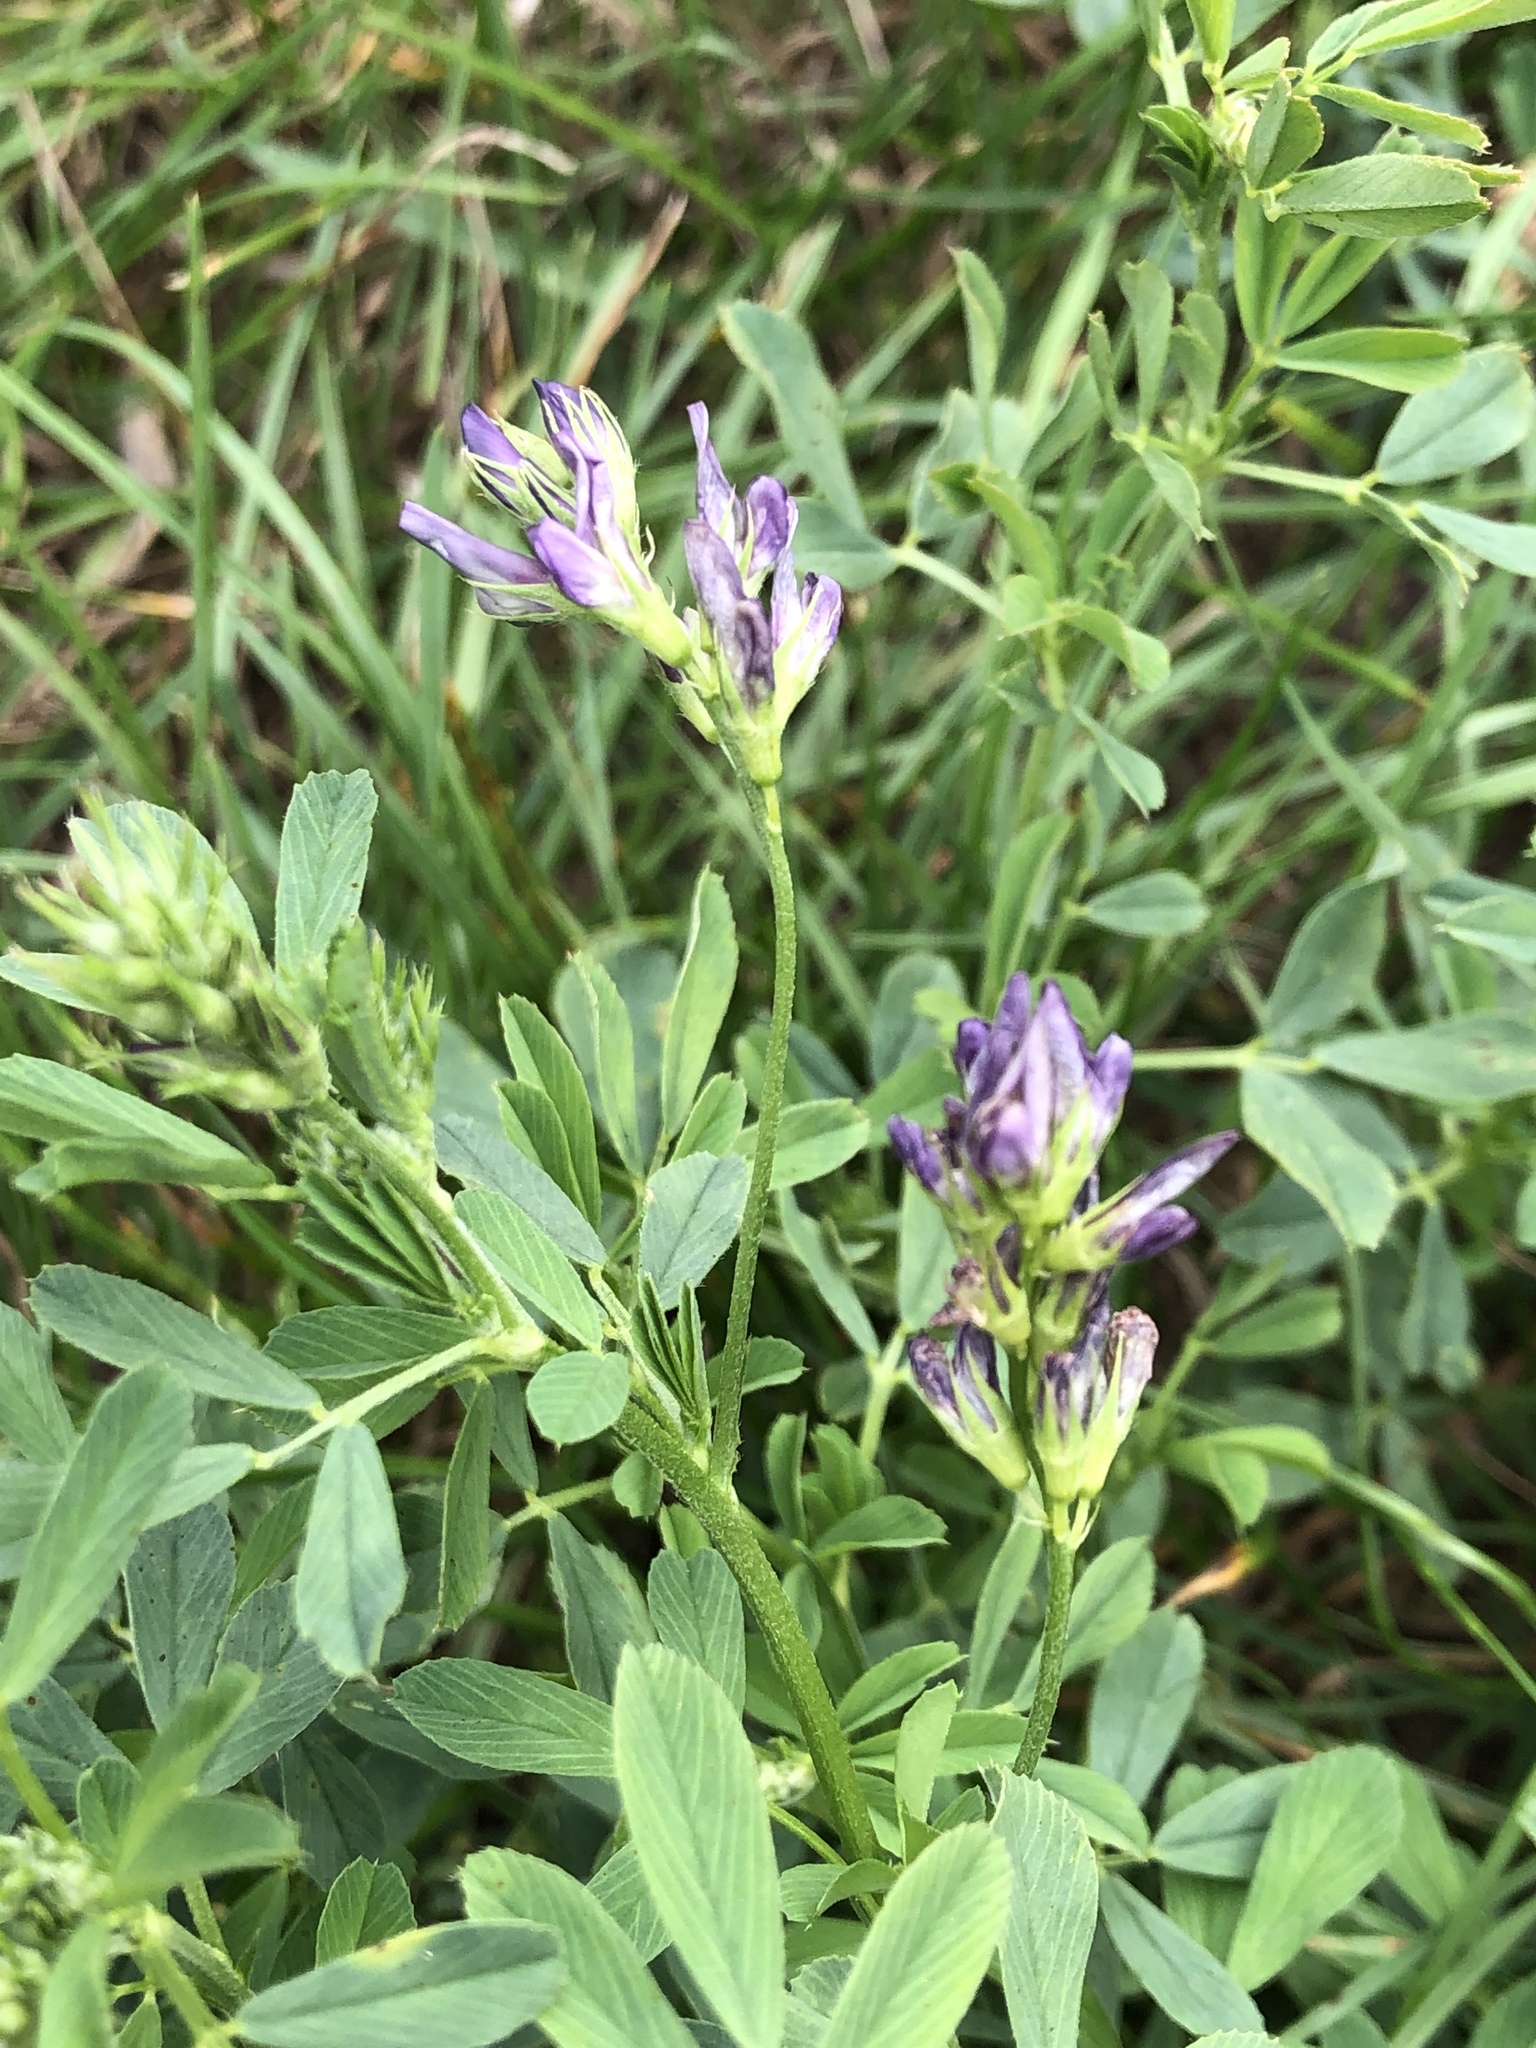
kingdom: Plantae
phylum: Tracheophyta
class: Magnoliopsida
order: Fabales
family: Fabaceae
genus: Medicago
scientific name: Medicago sativa
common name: Alfalfa
